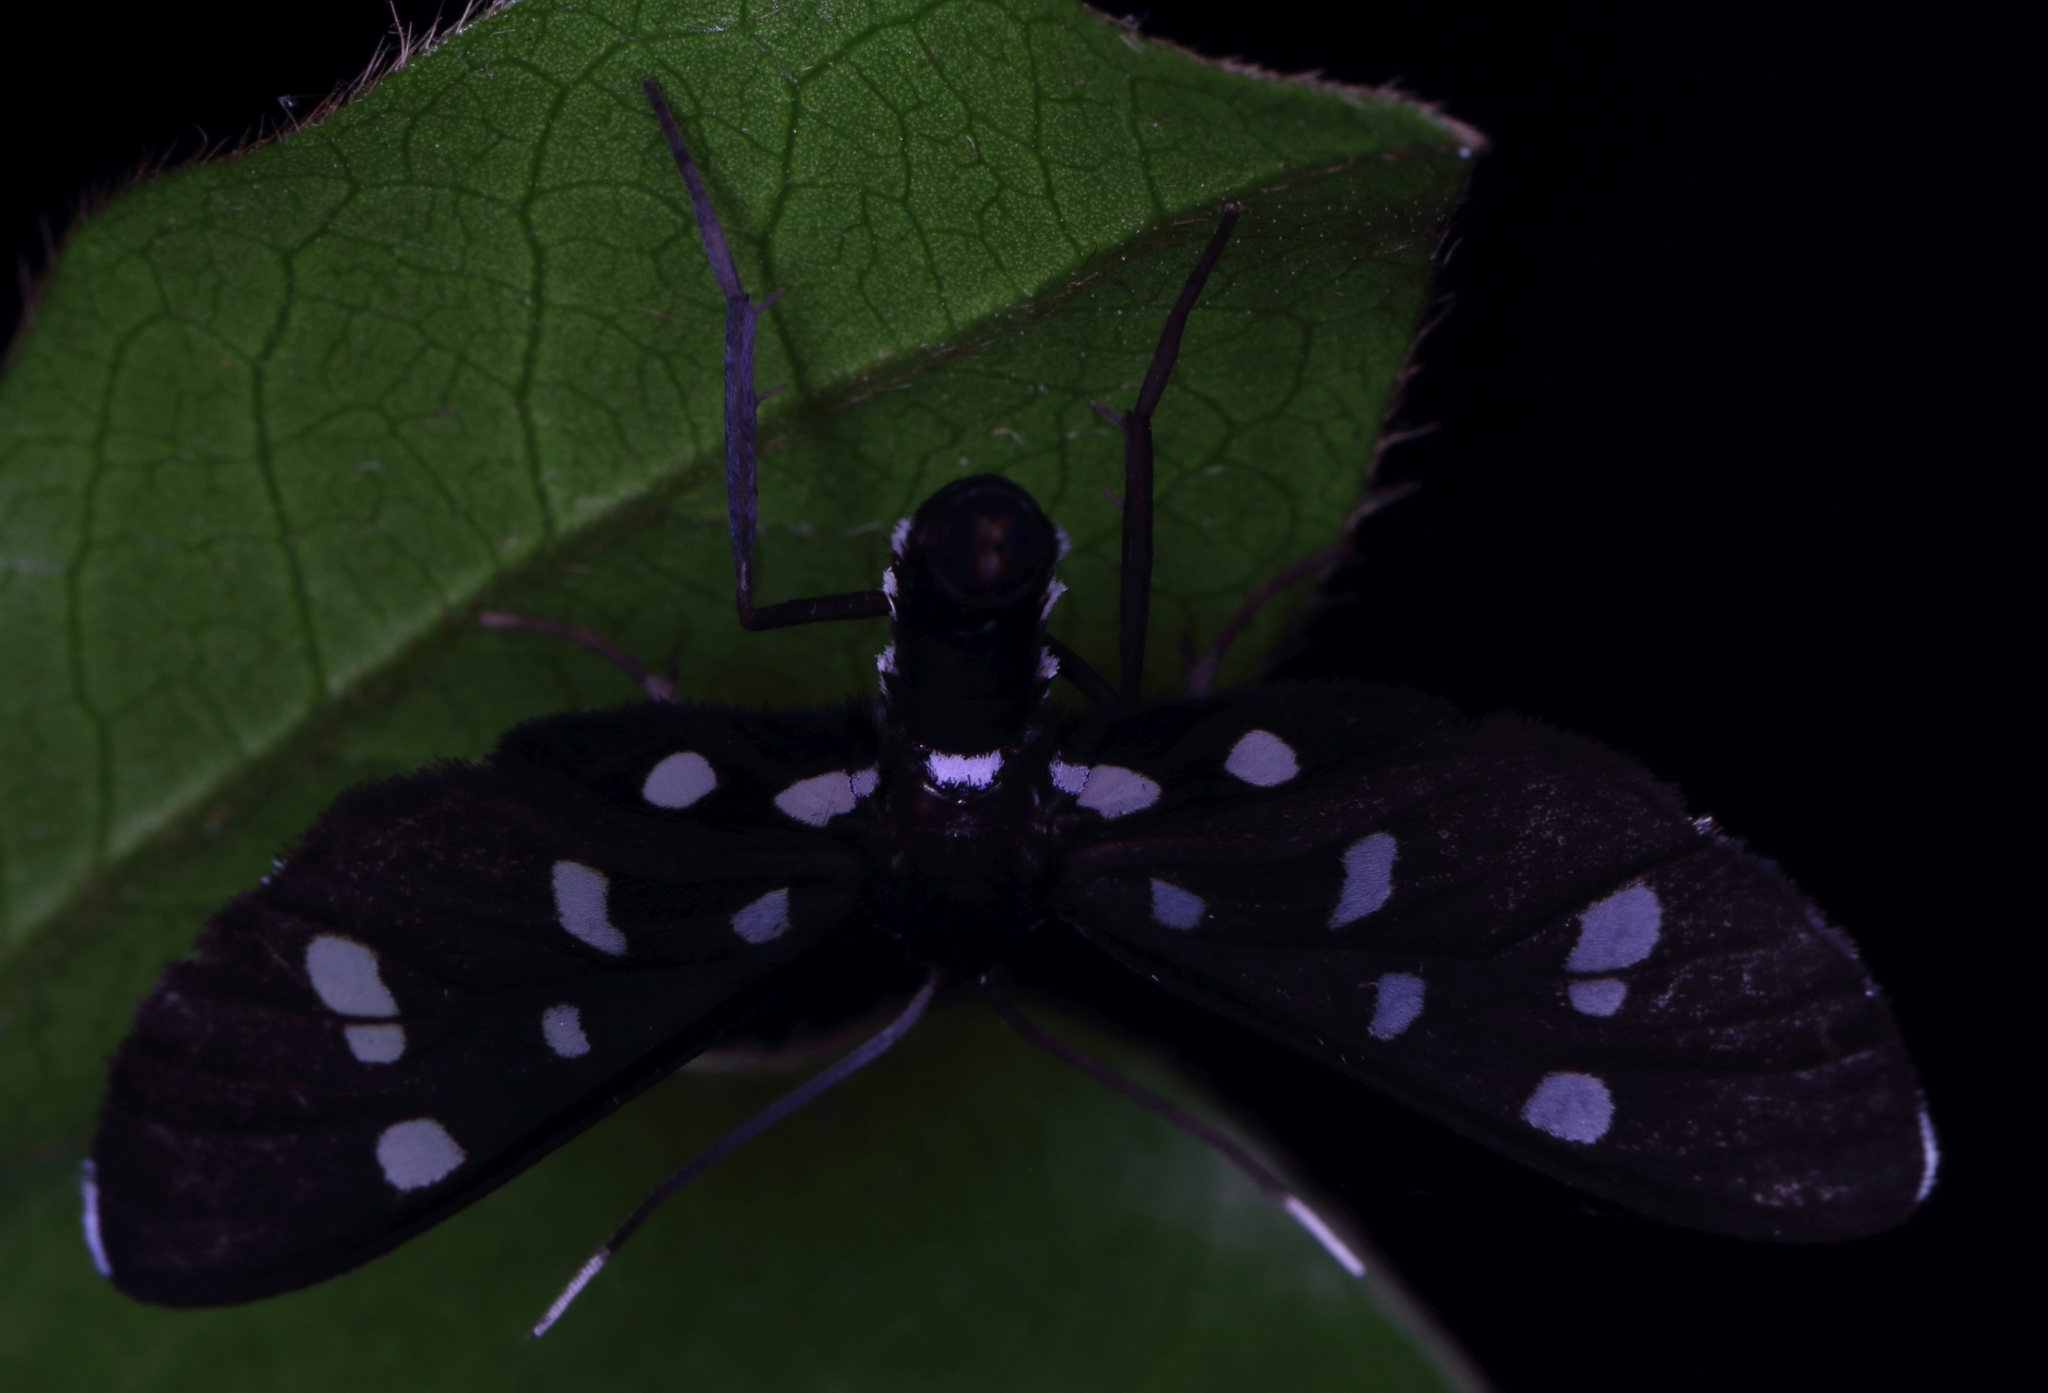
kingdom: Animalia
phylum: Arthropoda
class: Insecta
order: Lepidoptera
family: Erebidae
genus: Ceryx
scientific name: Ceryx longipes
